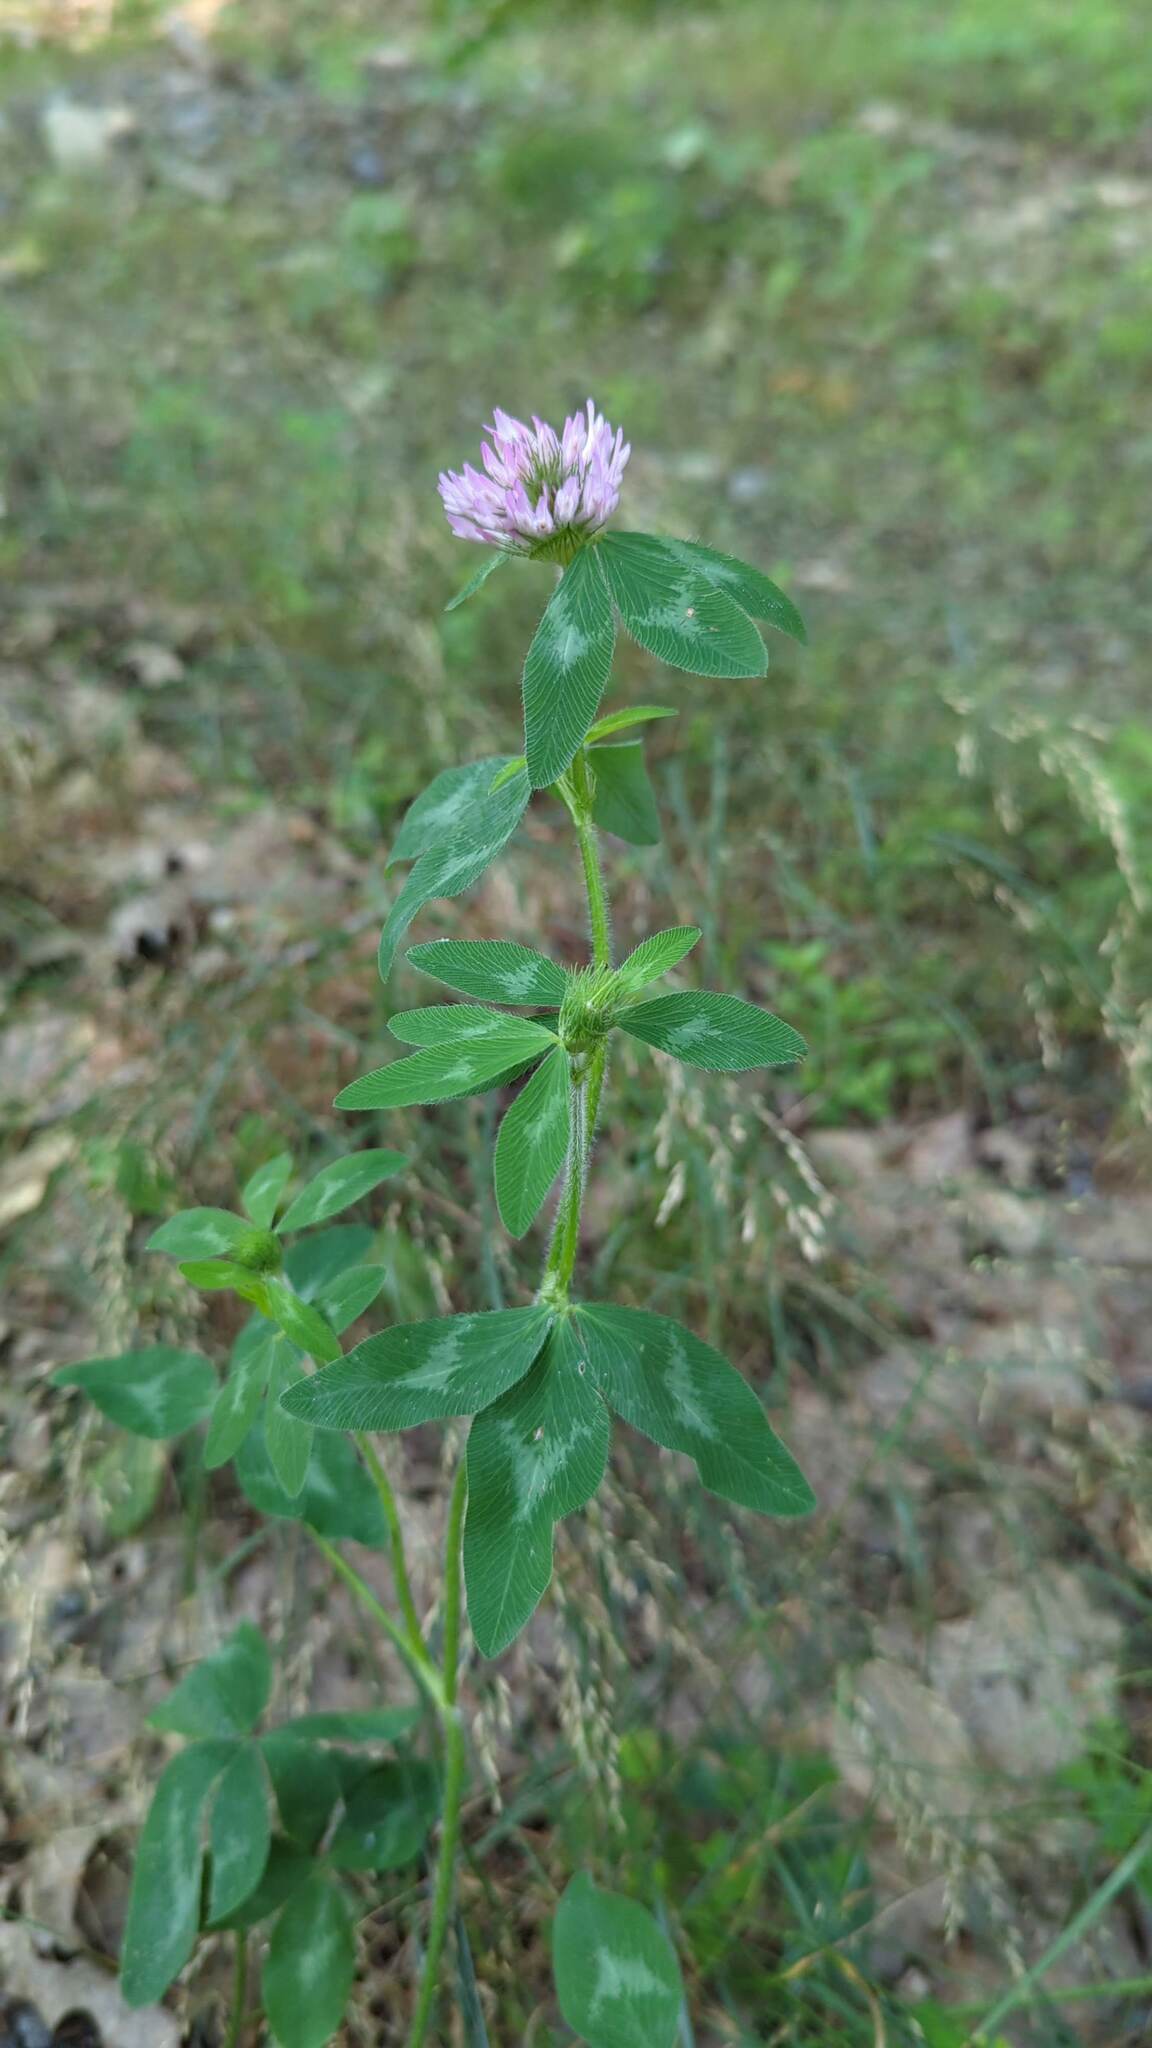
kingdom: Plantae
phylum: Tracheophyta
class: Magnoliopsida
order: Fabales
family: Fabaceae
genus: Trifolium
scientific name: Trifolium pratense
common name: Red clover
